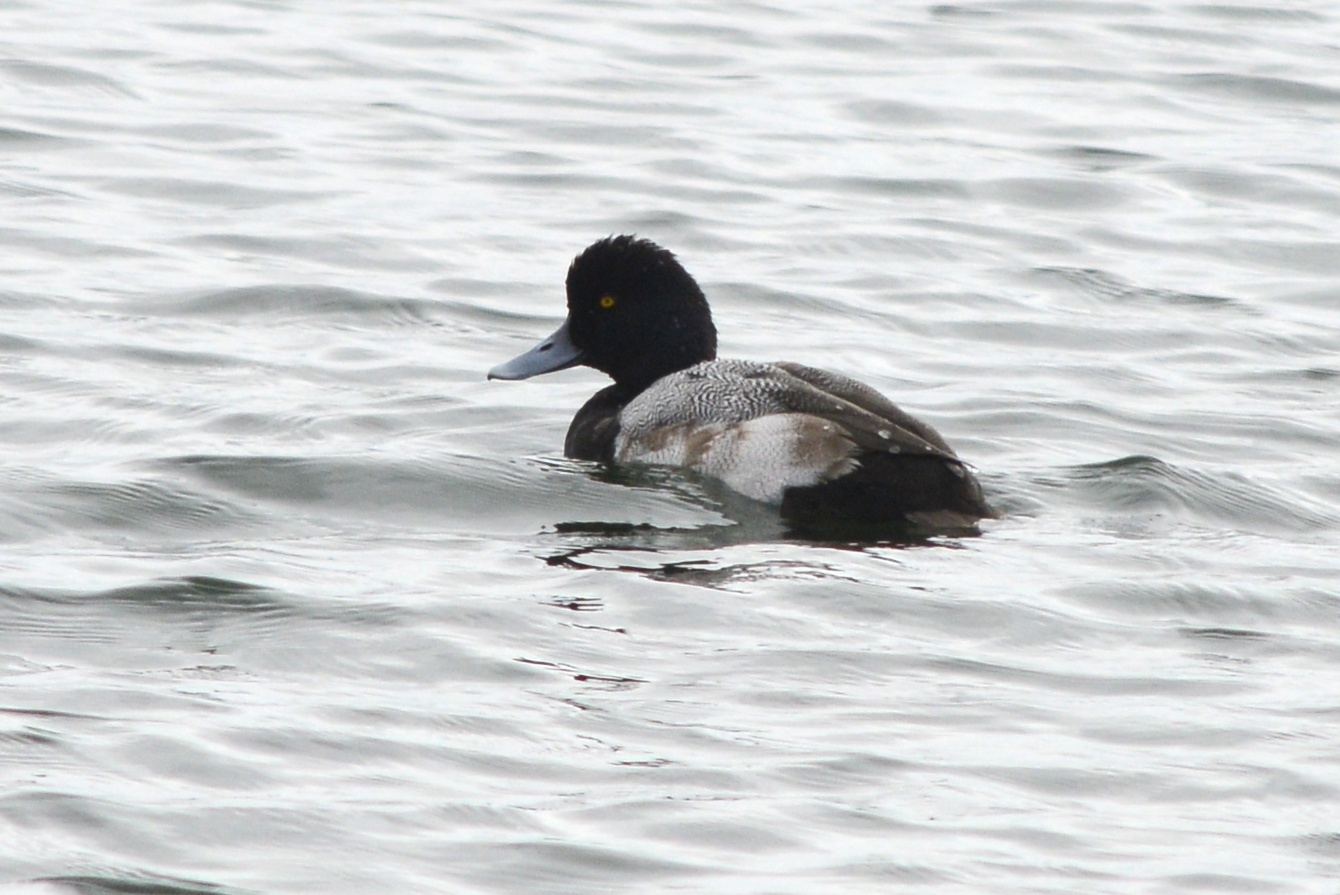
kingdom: Animalia
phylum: Chordata
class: Aves
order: Anseriformes
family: Anatidae
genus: Aythya
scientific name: Aythya marila
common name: Greater scaup
